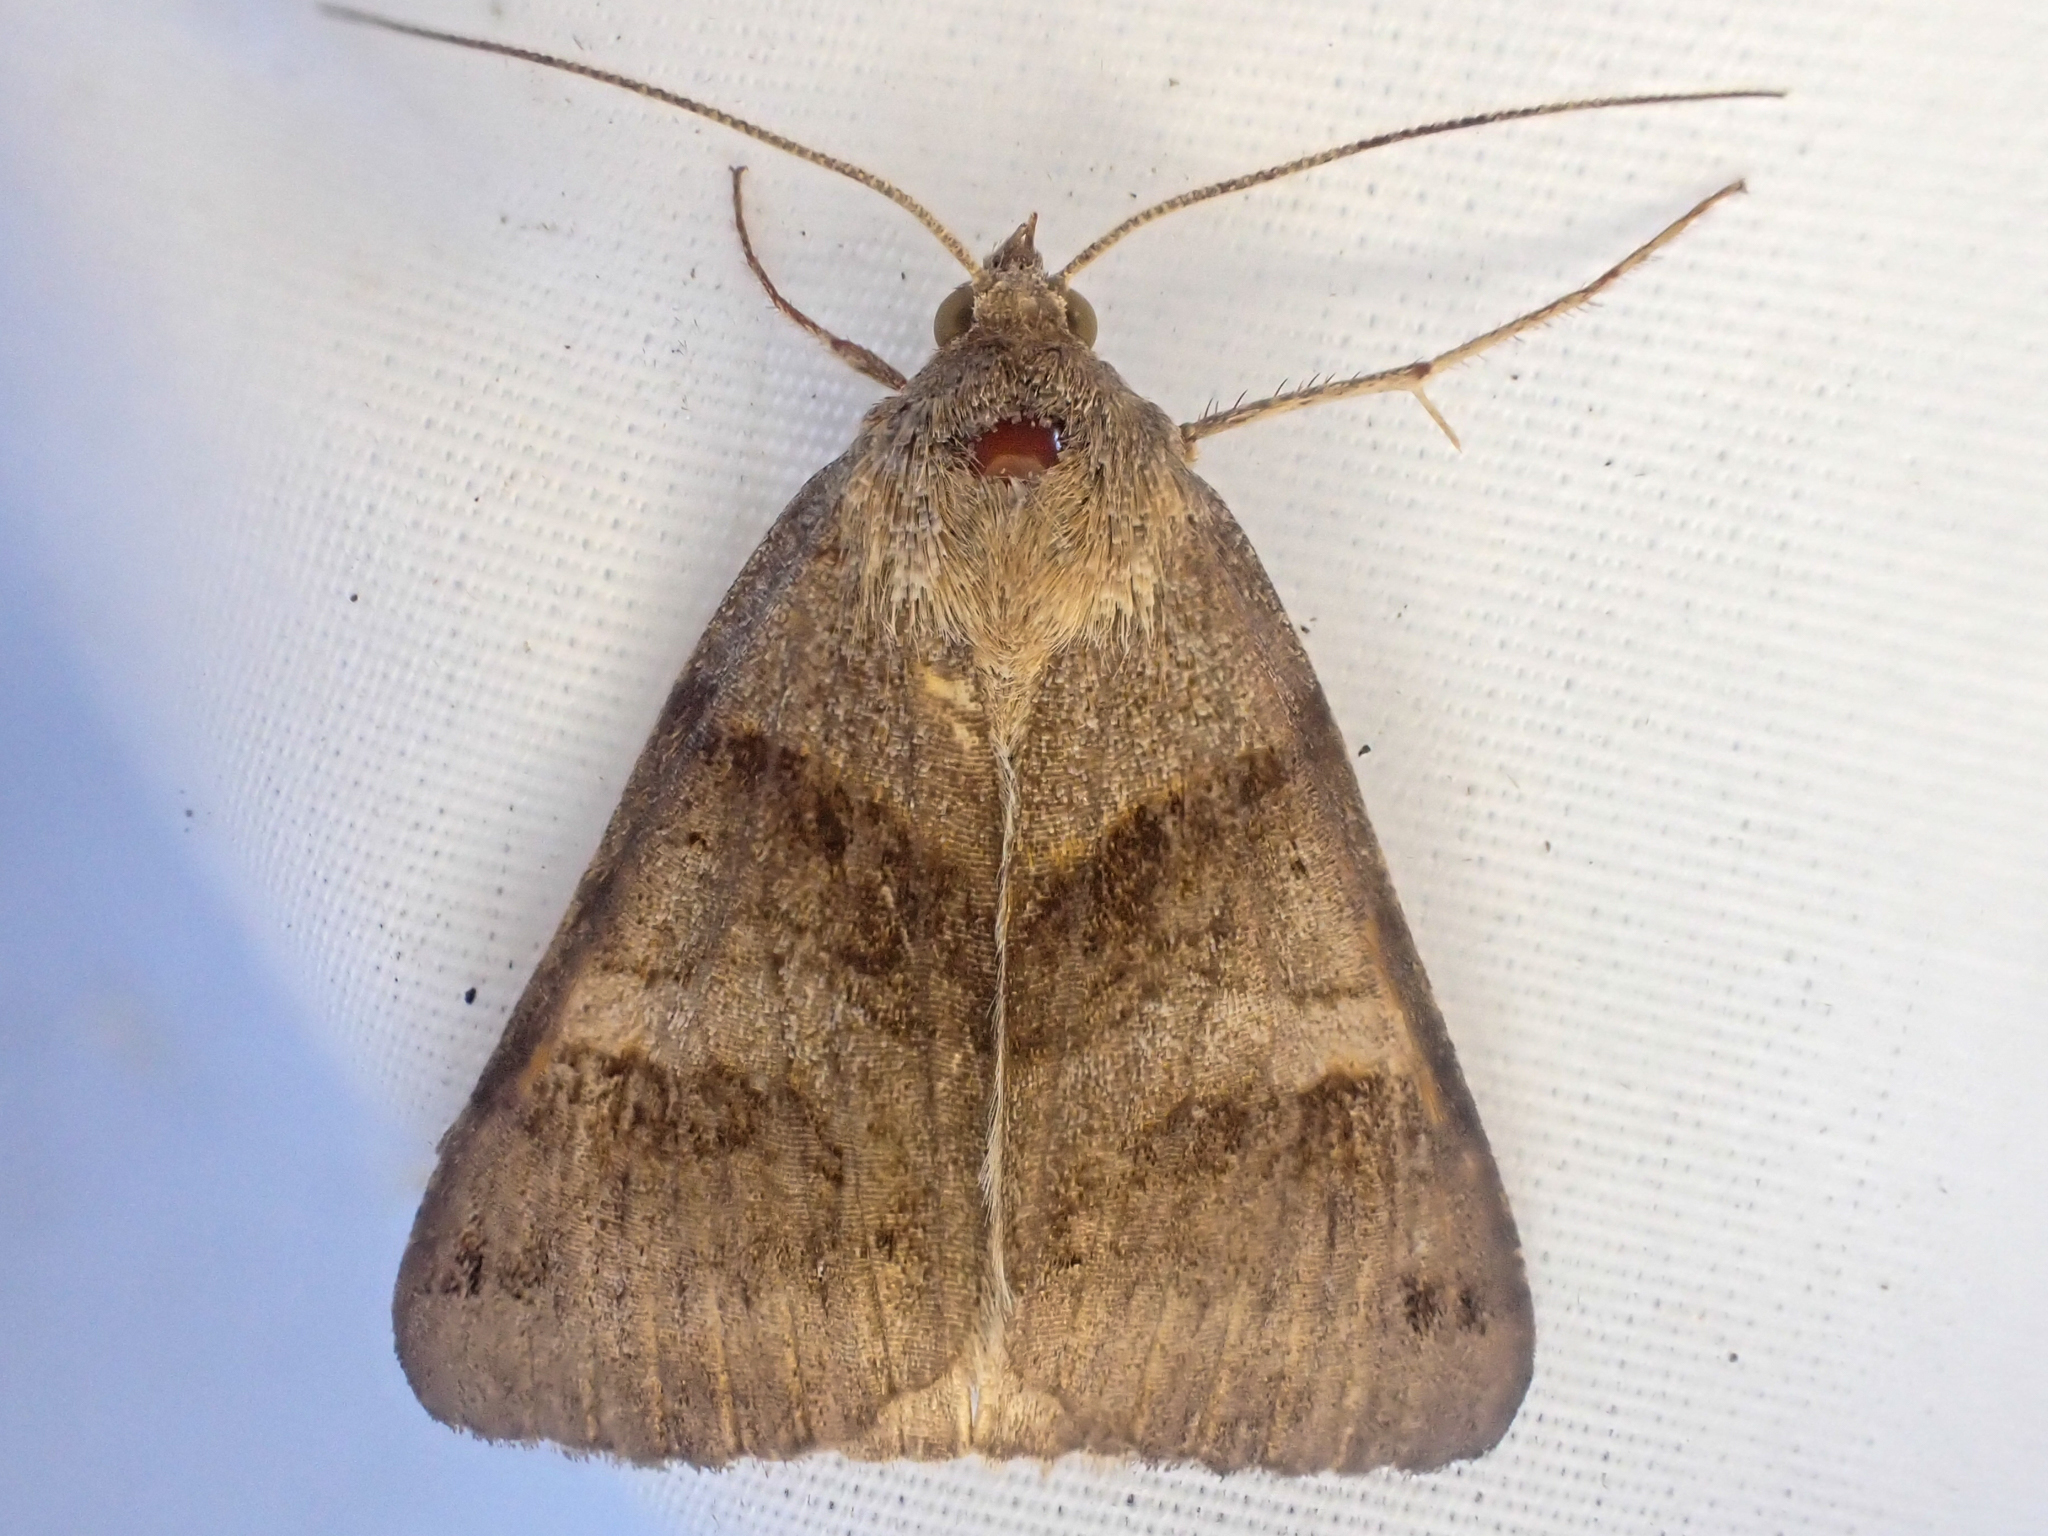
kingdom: Animalia
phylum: Arthropoda
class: Insecta
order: Lepidoptera
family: Erebidae
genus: Caenurgina
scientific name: Caenurgina erechtea
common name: Forage looper moth
